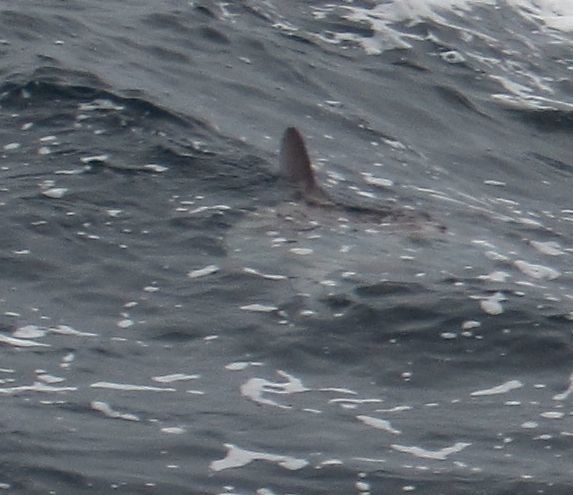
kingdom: Animalia
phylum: Chordata
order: Tetraodontiformes
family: Molidae
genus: Mola
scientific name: Mola mola
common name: Ocean sunfish
